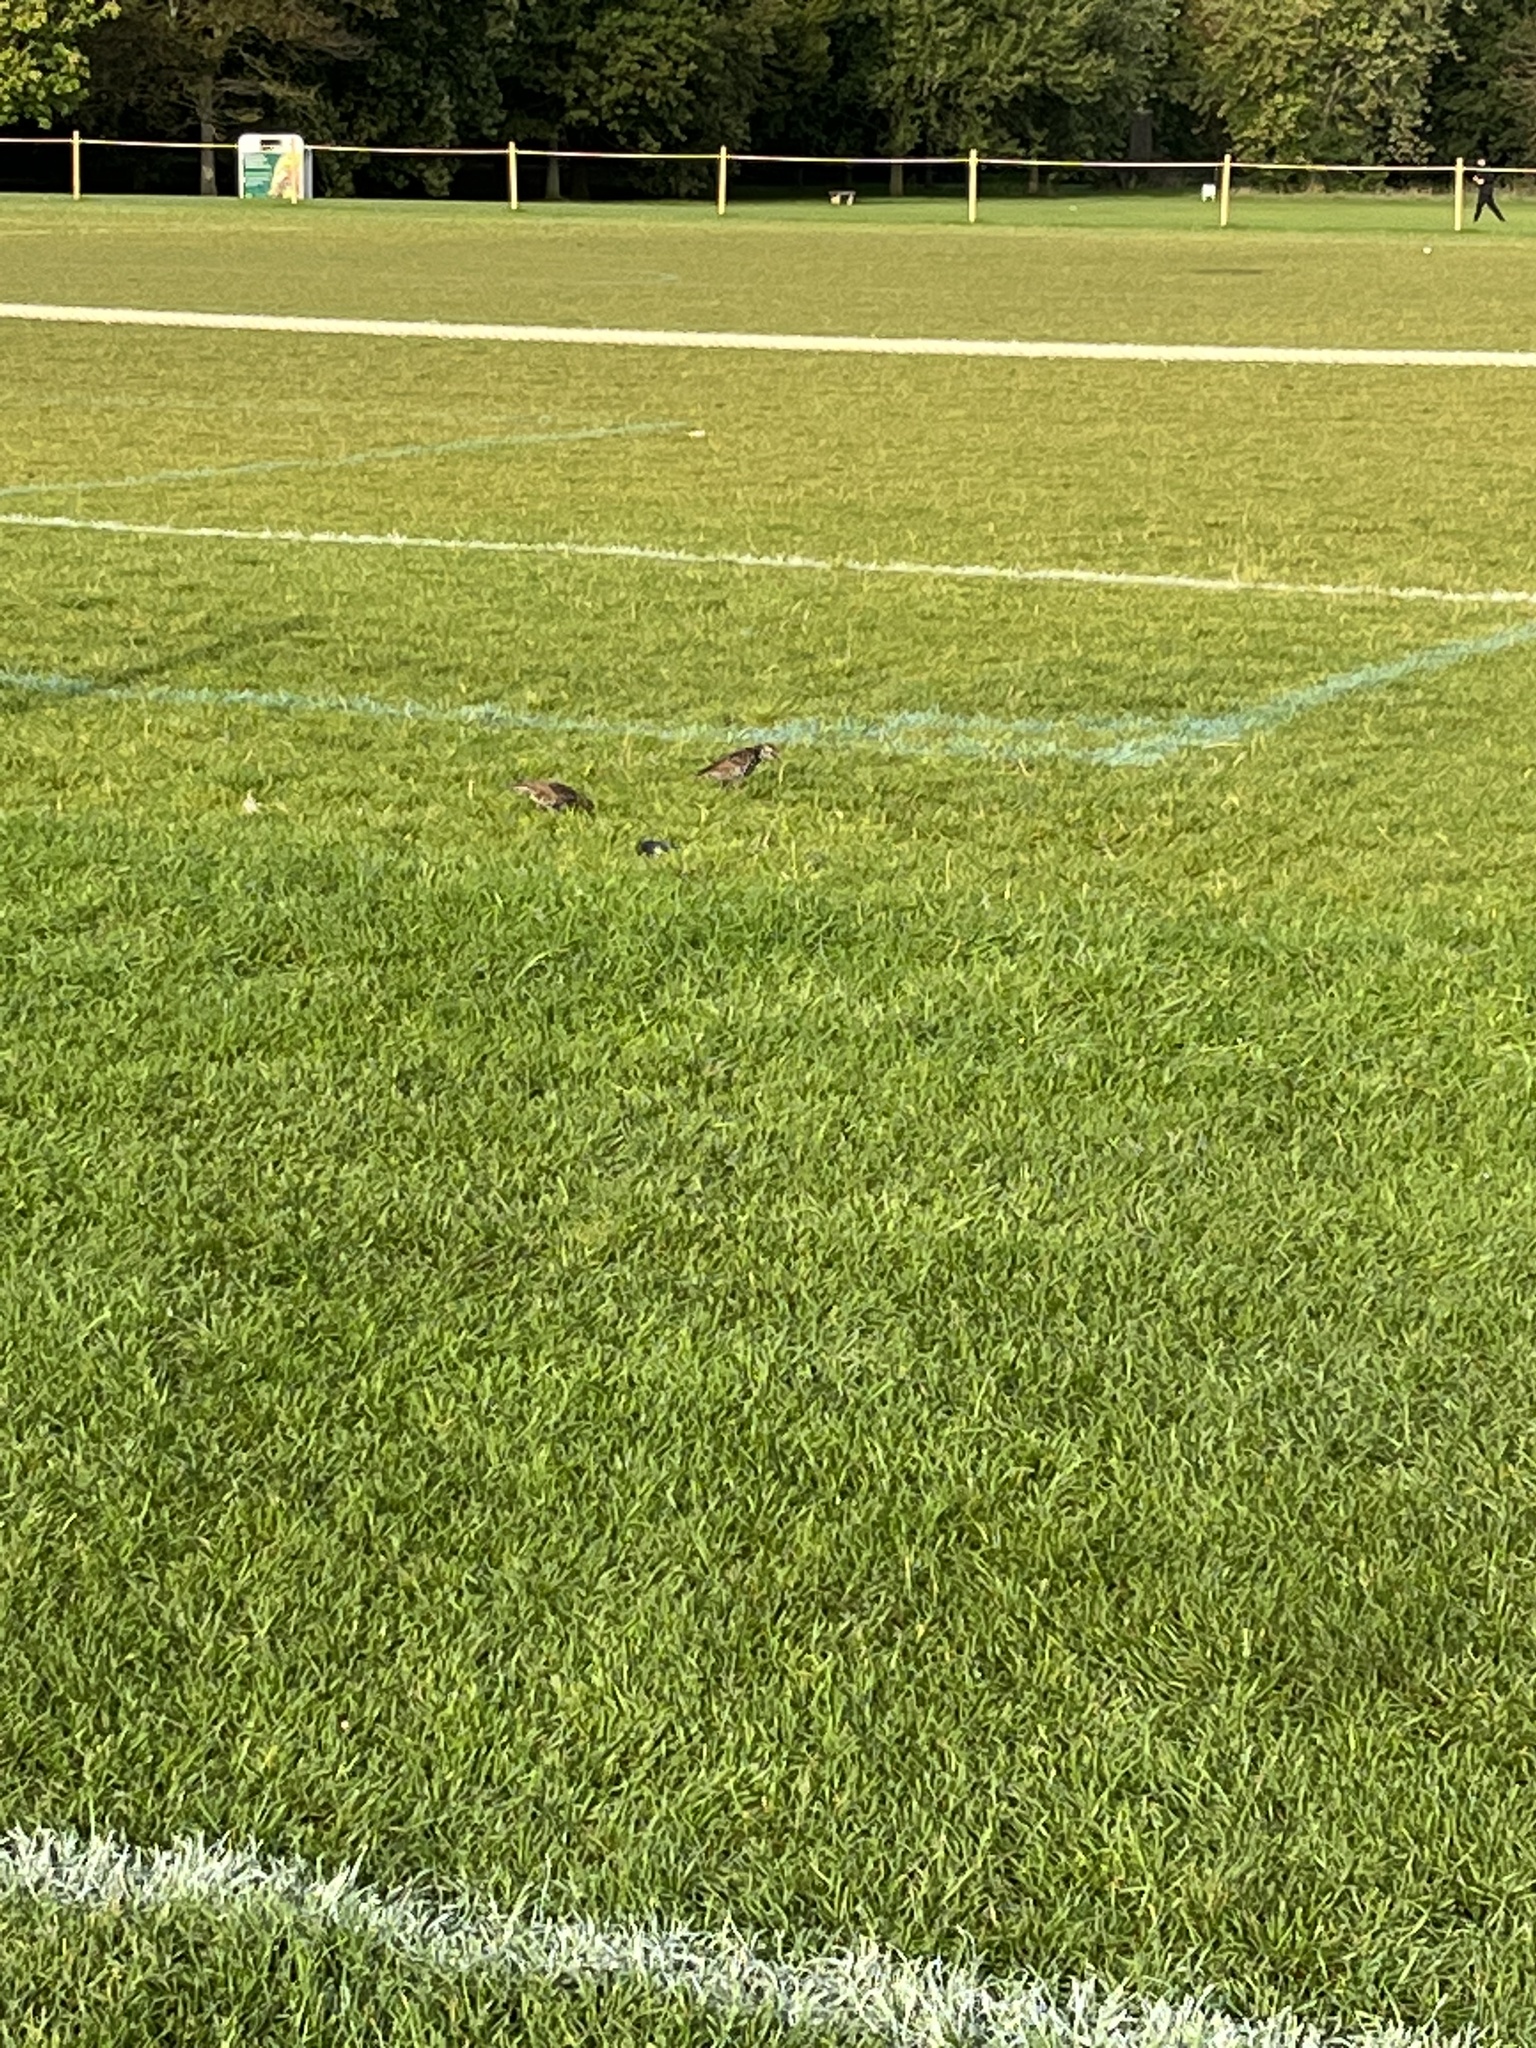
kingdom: Animalia
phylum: Chordata
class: Aves
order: Passeriformes
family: Sturnidae
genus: Sturnus
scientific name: Sturnus vulgaris
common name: Common starling
